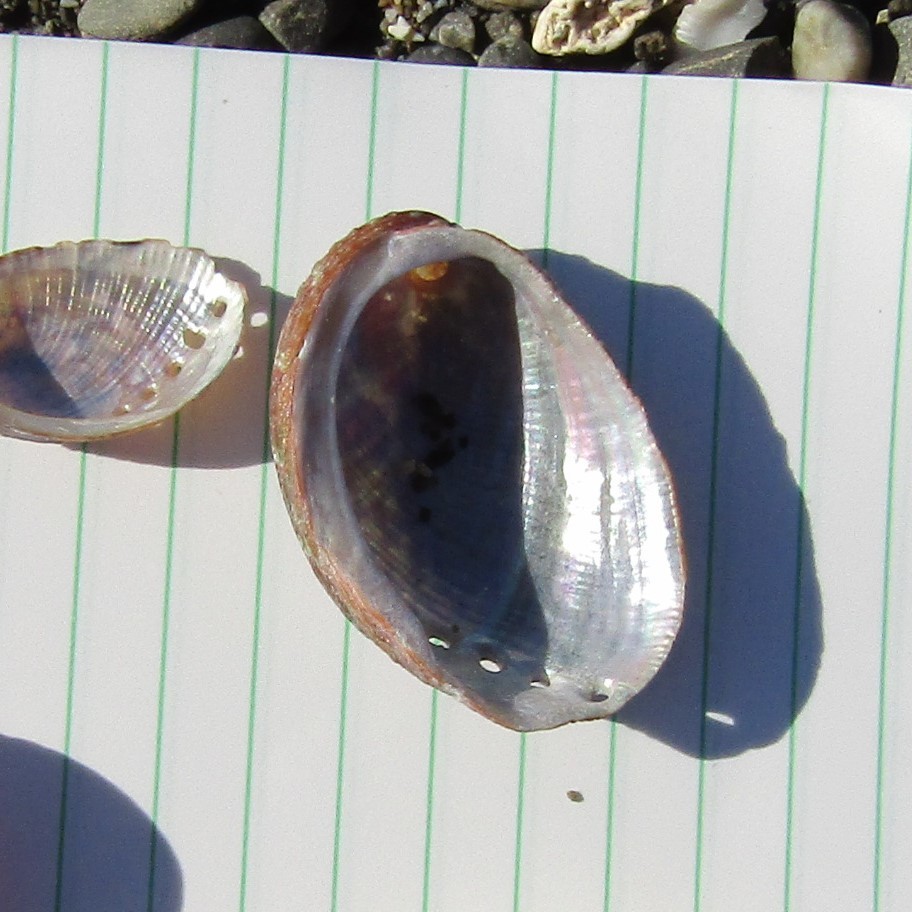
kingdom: Animalia
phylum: Mollusca
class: Gastropoda
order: Lepetellida
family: Haliotidae
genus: Haliotis
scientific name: Haliotis virginea
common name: Whitefoot paua
